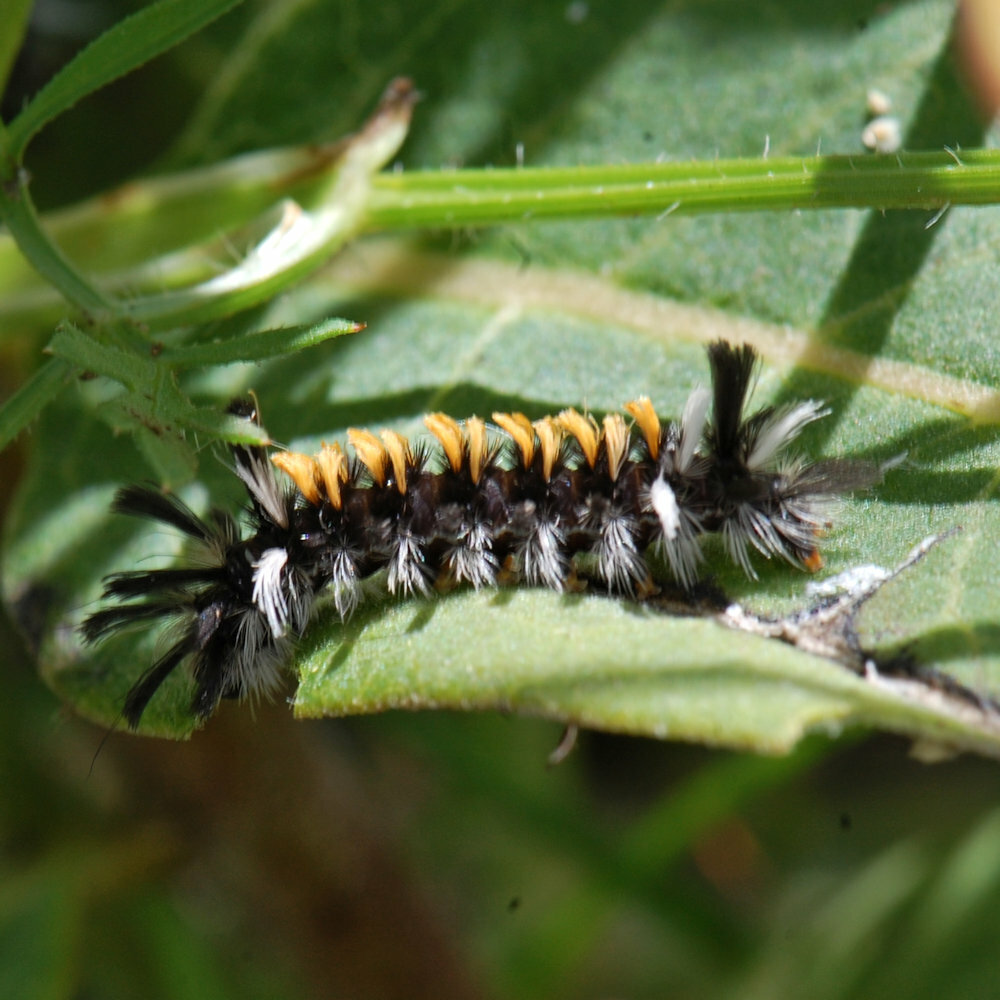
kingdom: Animalia
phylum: Arthropoda
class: Insecta
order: Lepidoptera
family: Erebidae
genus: Euchaetes
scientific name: Euchaetes egle
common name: Milkweed tussock moth
